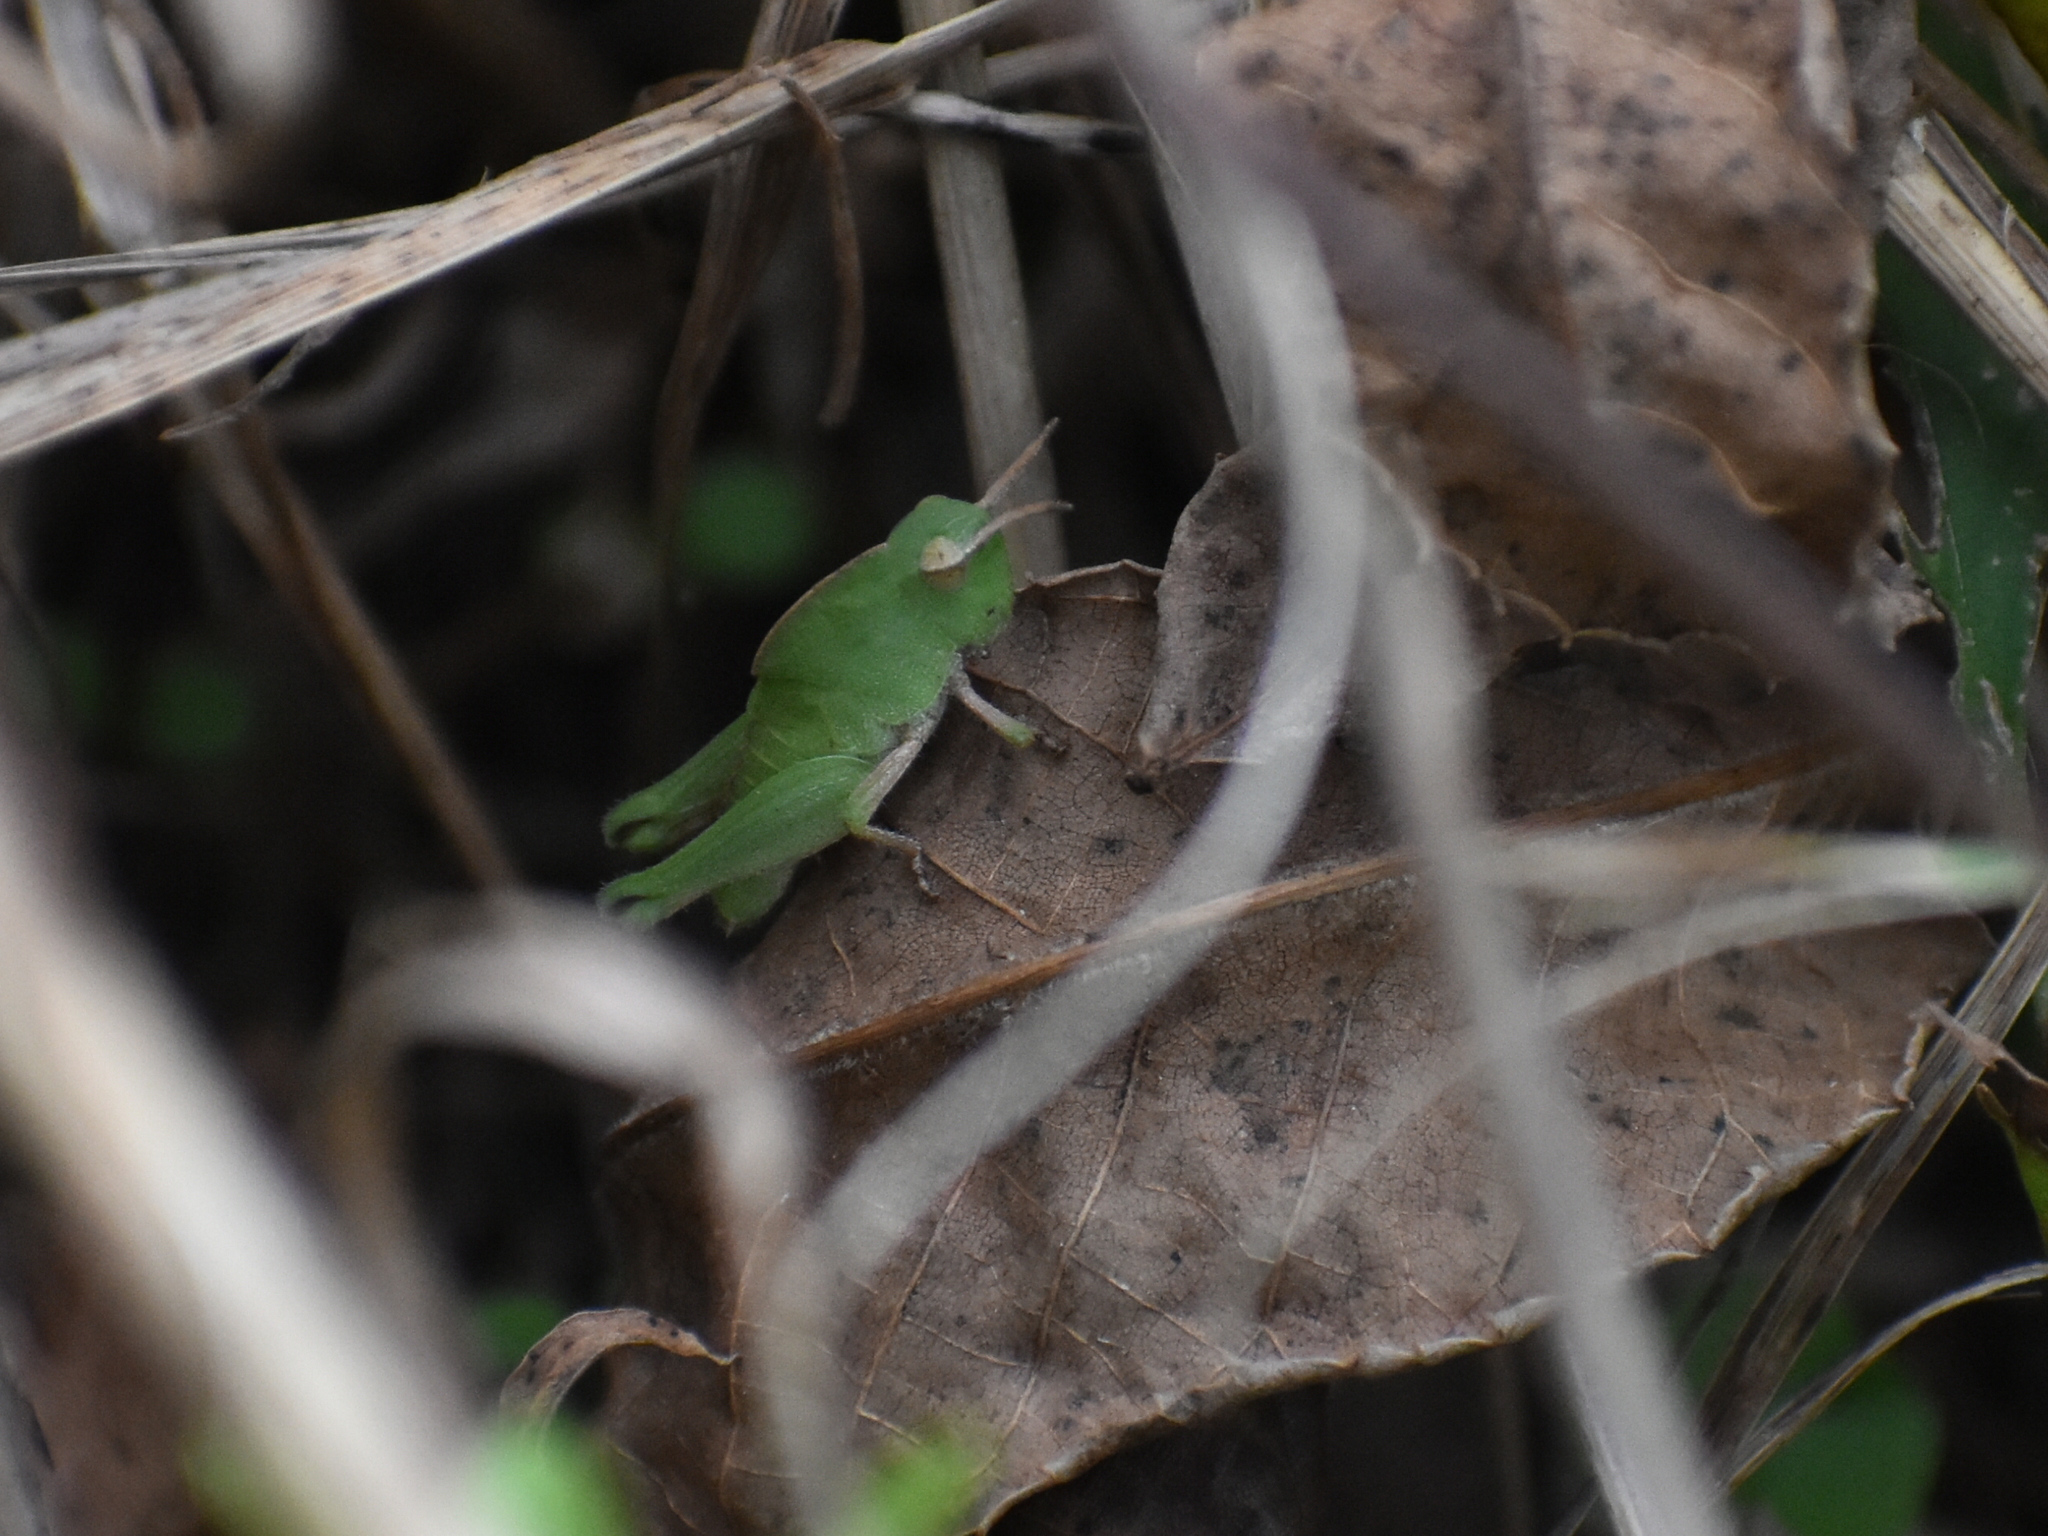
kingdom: Animalia
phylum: Arthropoda
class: Insecta
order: Orthoptera
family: Acrididae
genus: Chortophaga
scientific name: Chortophaga viridifasciata
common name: Green-striped grasshopper
